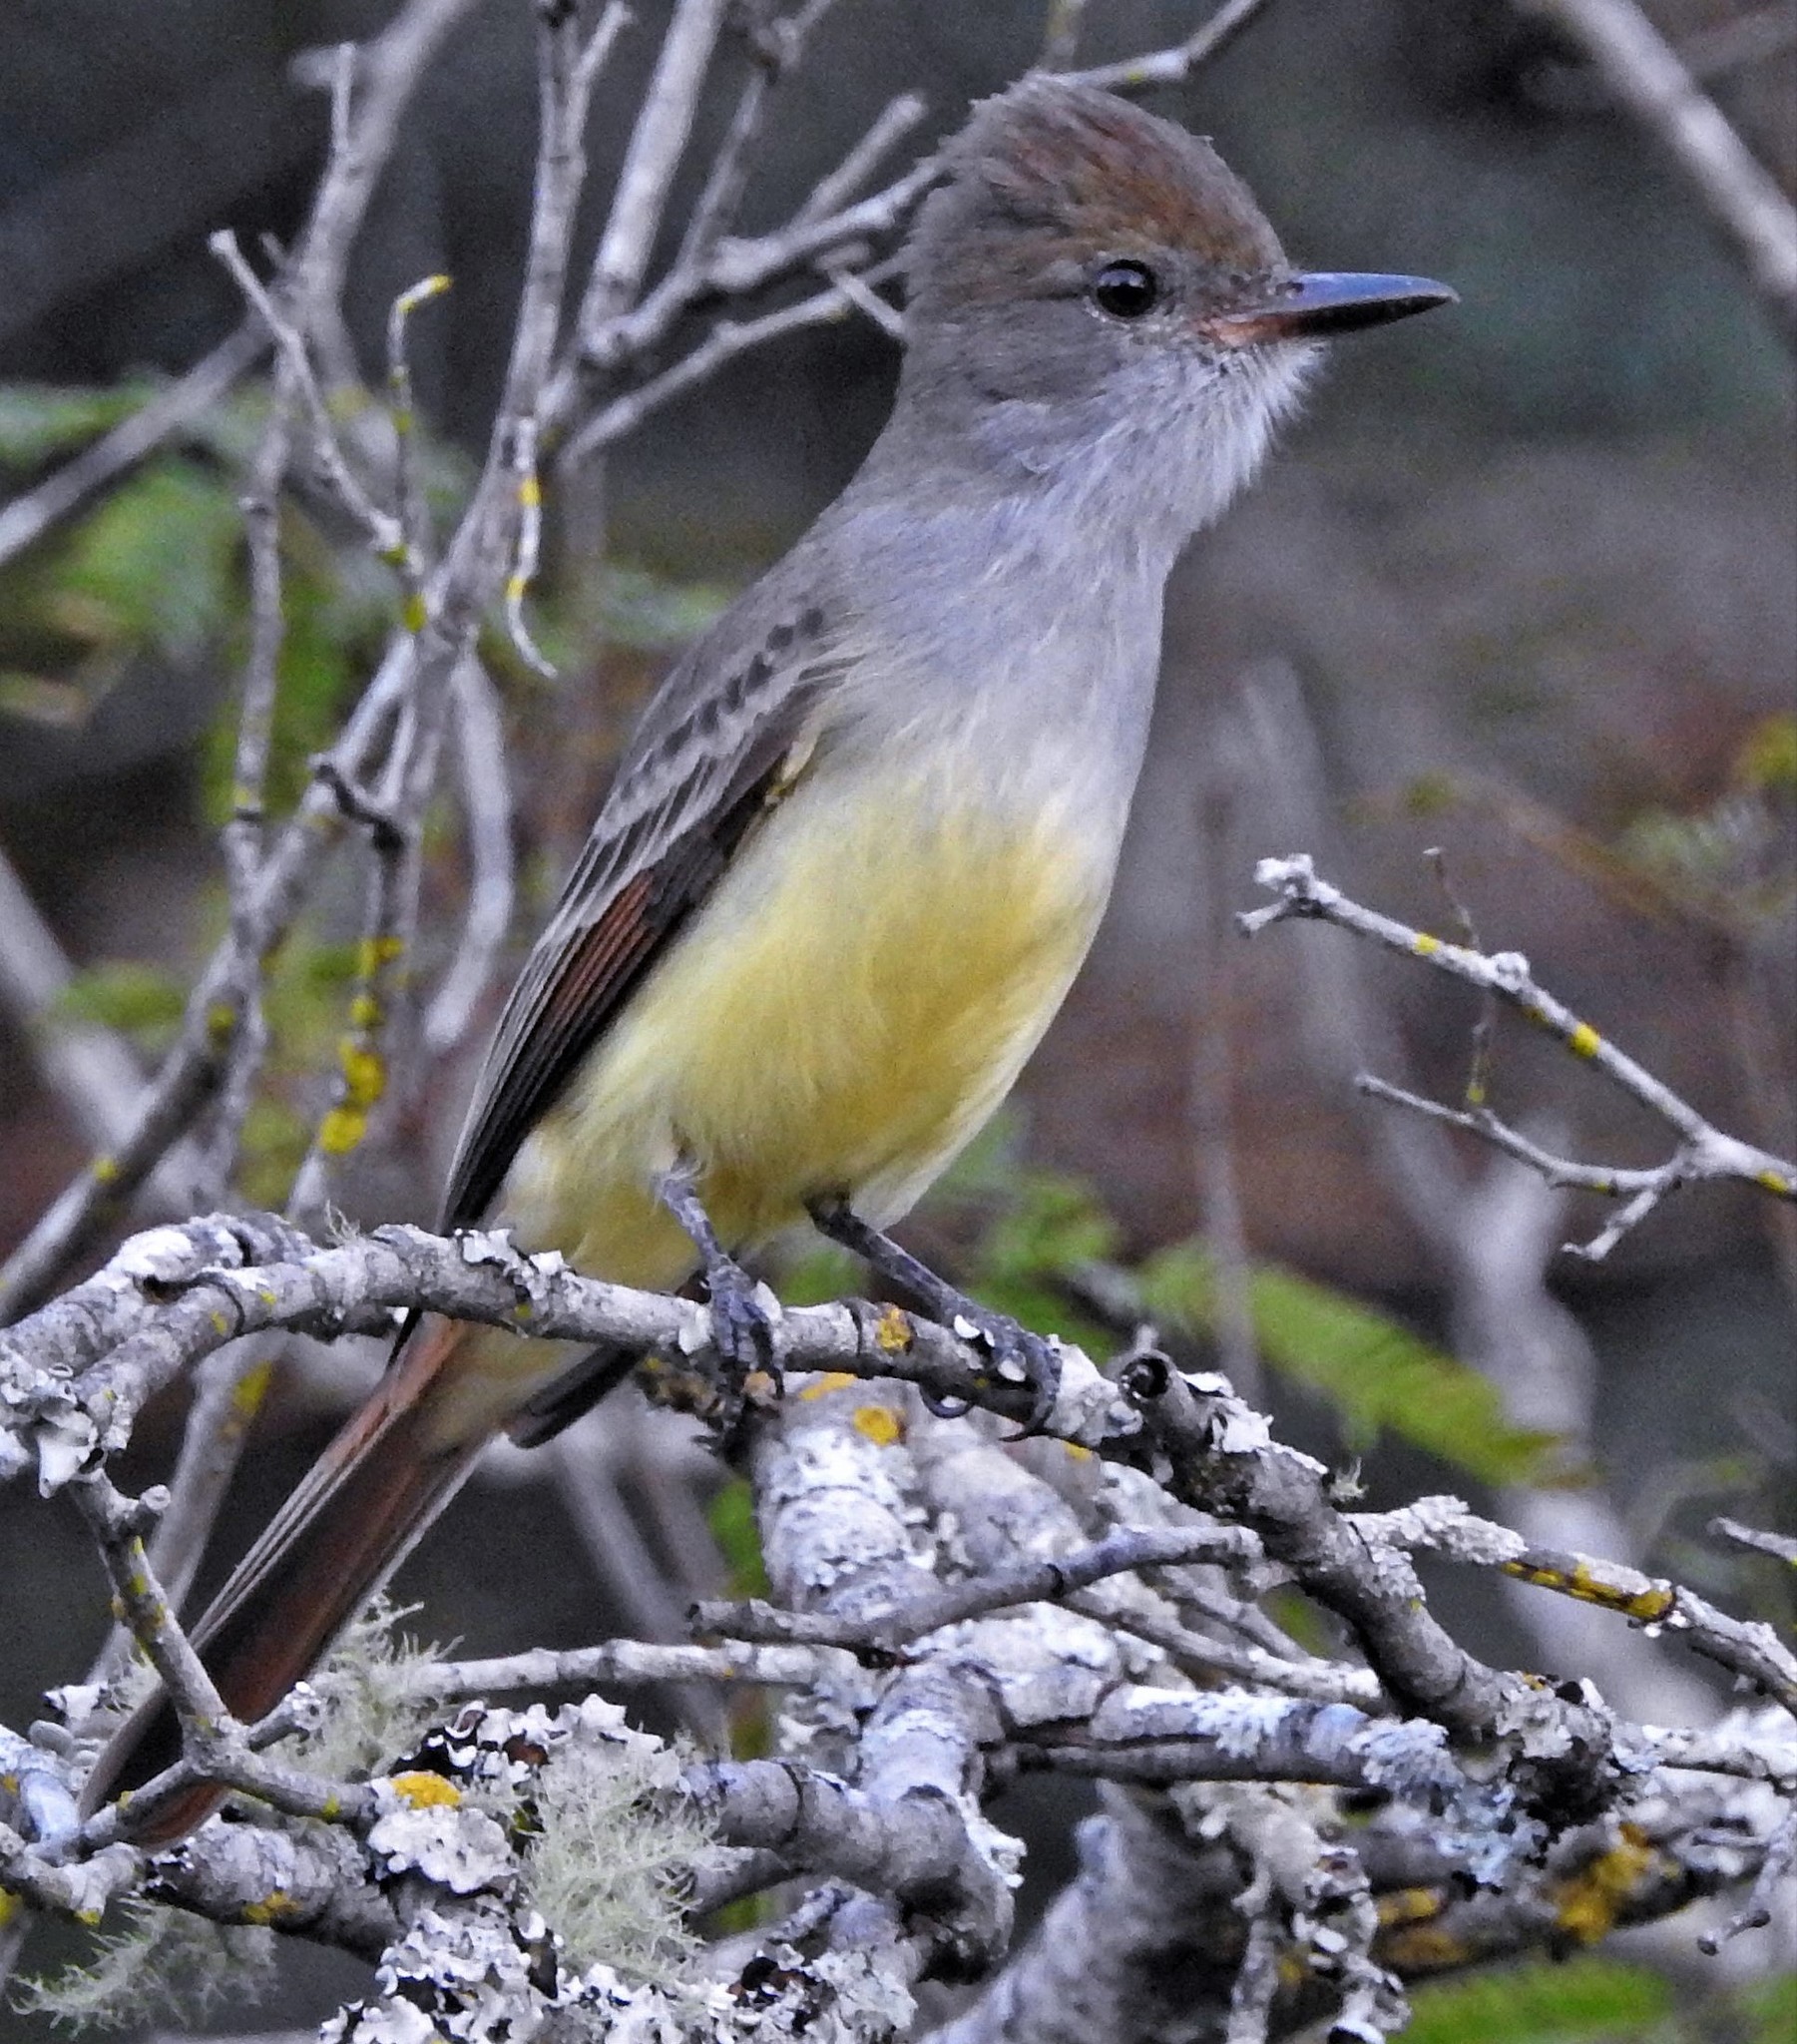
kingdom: Animalia
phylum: Chordata
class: Aves
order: Passeriformes
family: Tyrannidae
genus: Myiarchus
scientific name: Myiarchus tyrannulus
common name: Brown-crested flycatcher
